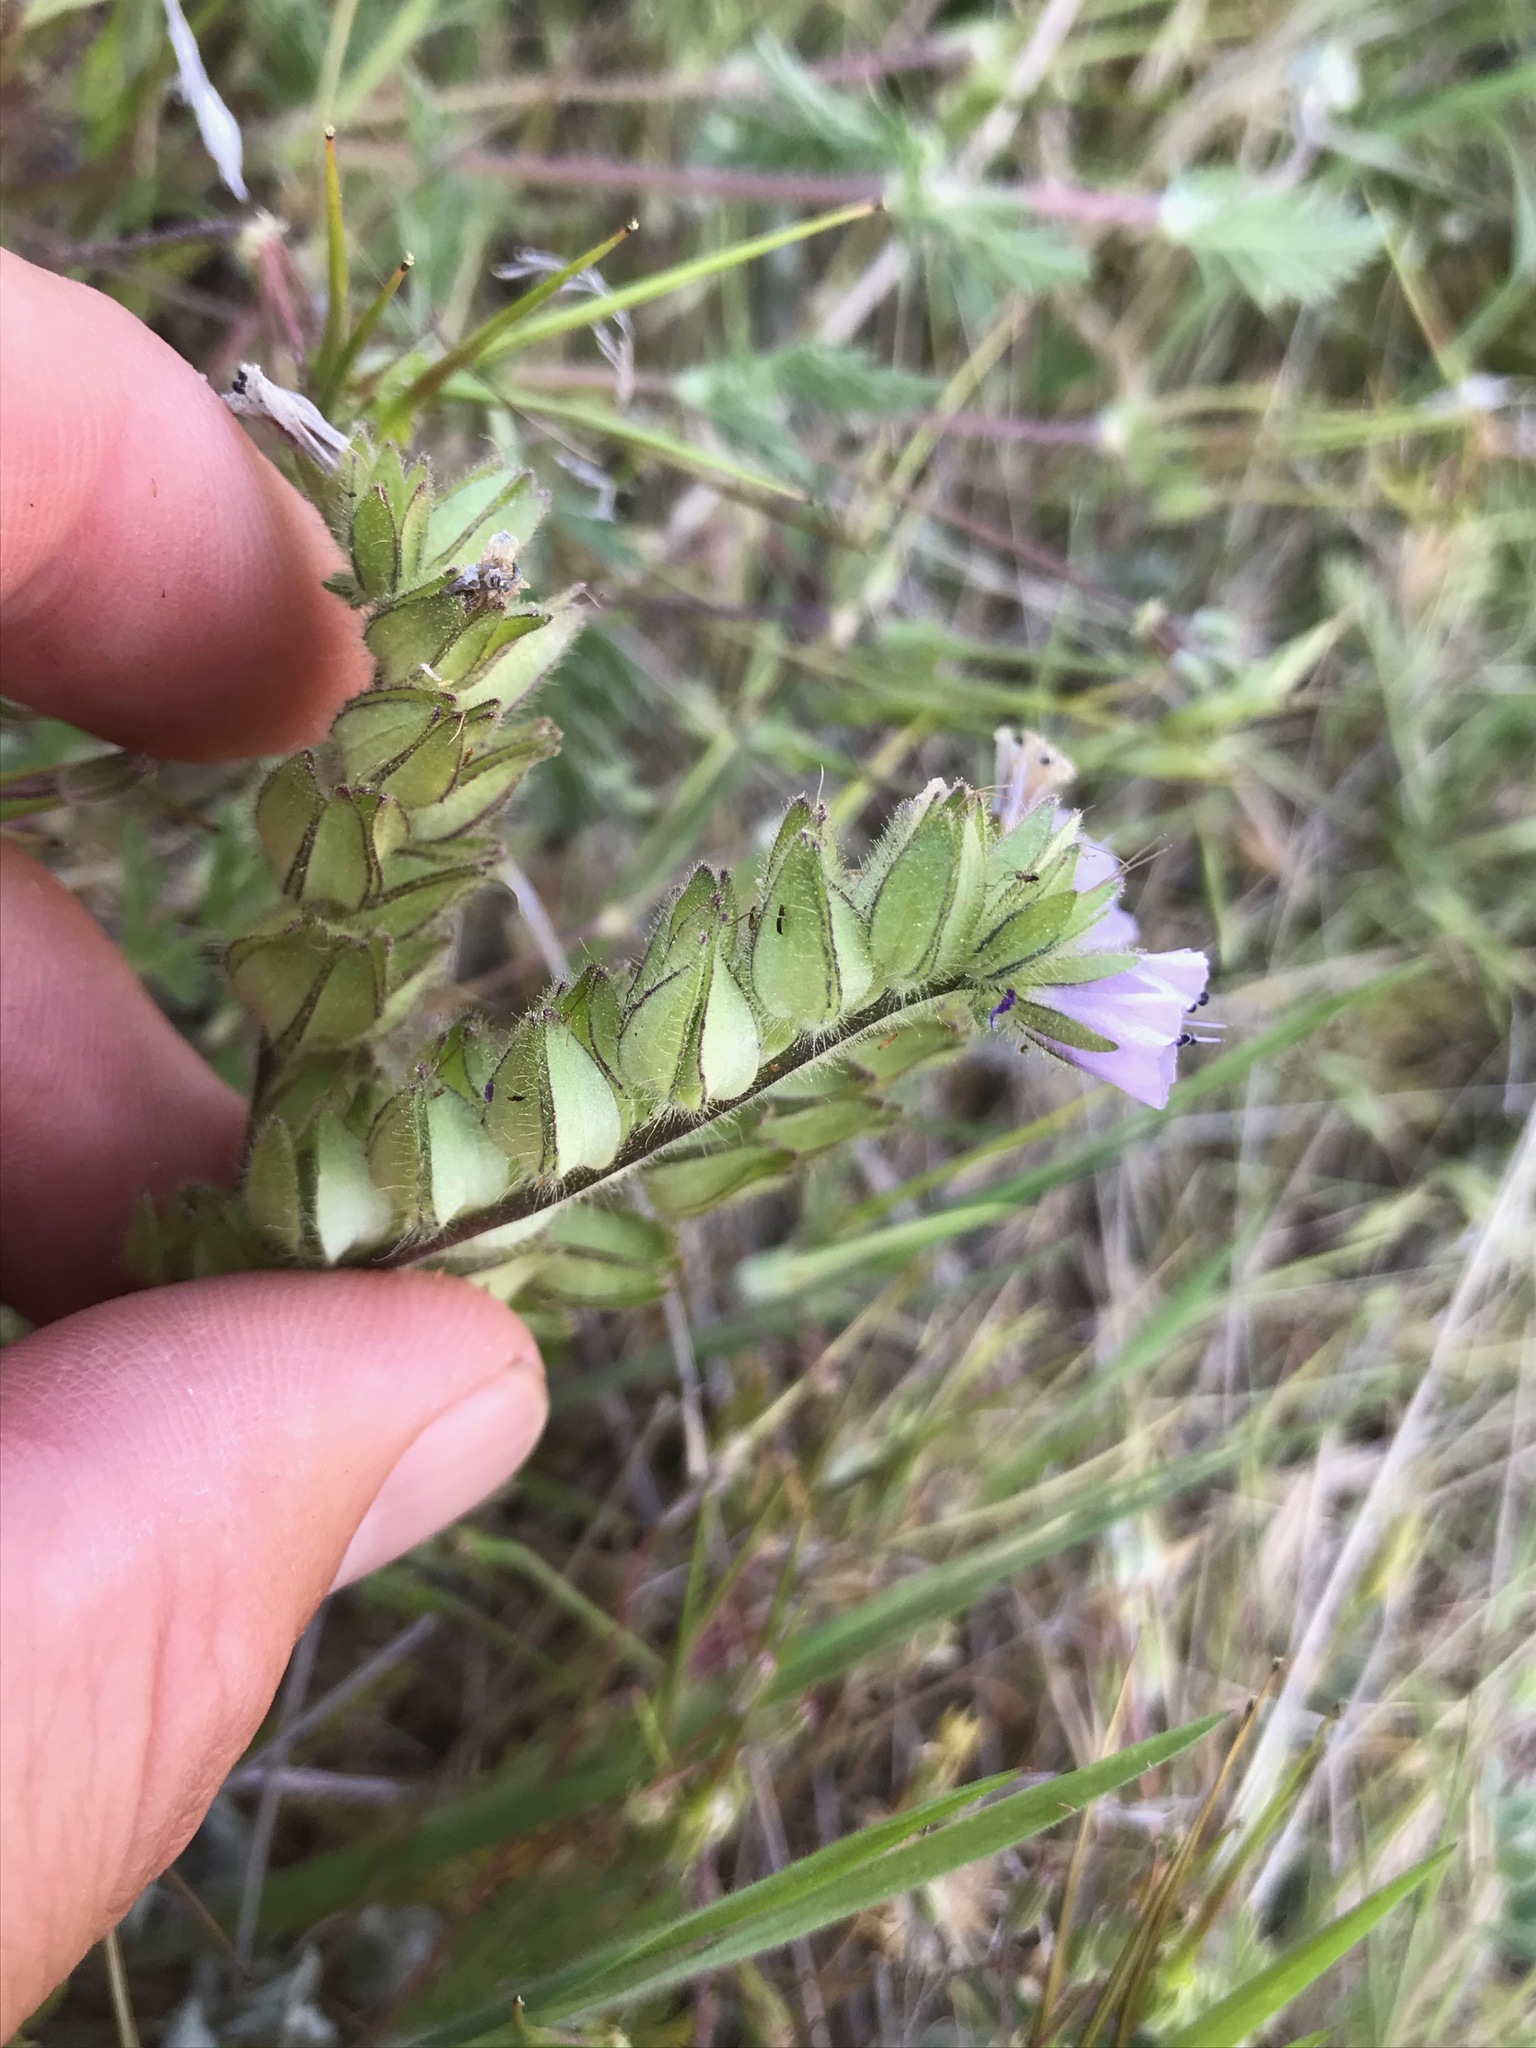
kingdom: Plantae
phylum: Tracheophyta
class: Magnoliopsida
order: Boraginales
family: Hydrophyllaceae
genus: Phacelia
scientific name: Phacelia ciliata
